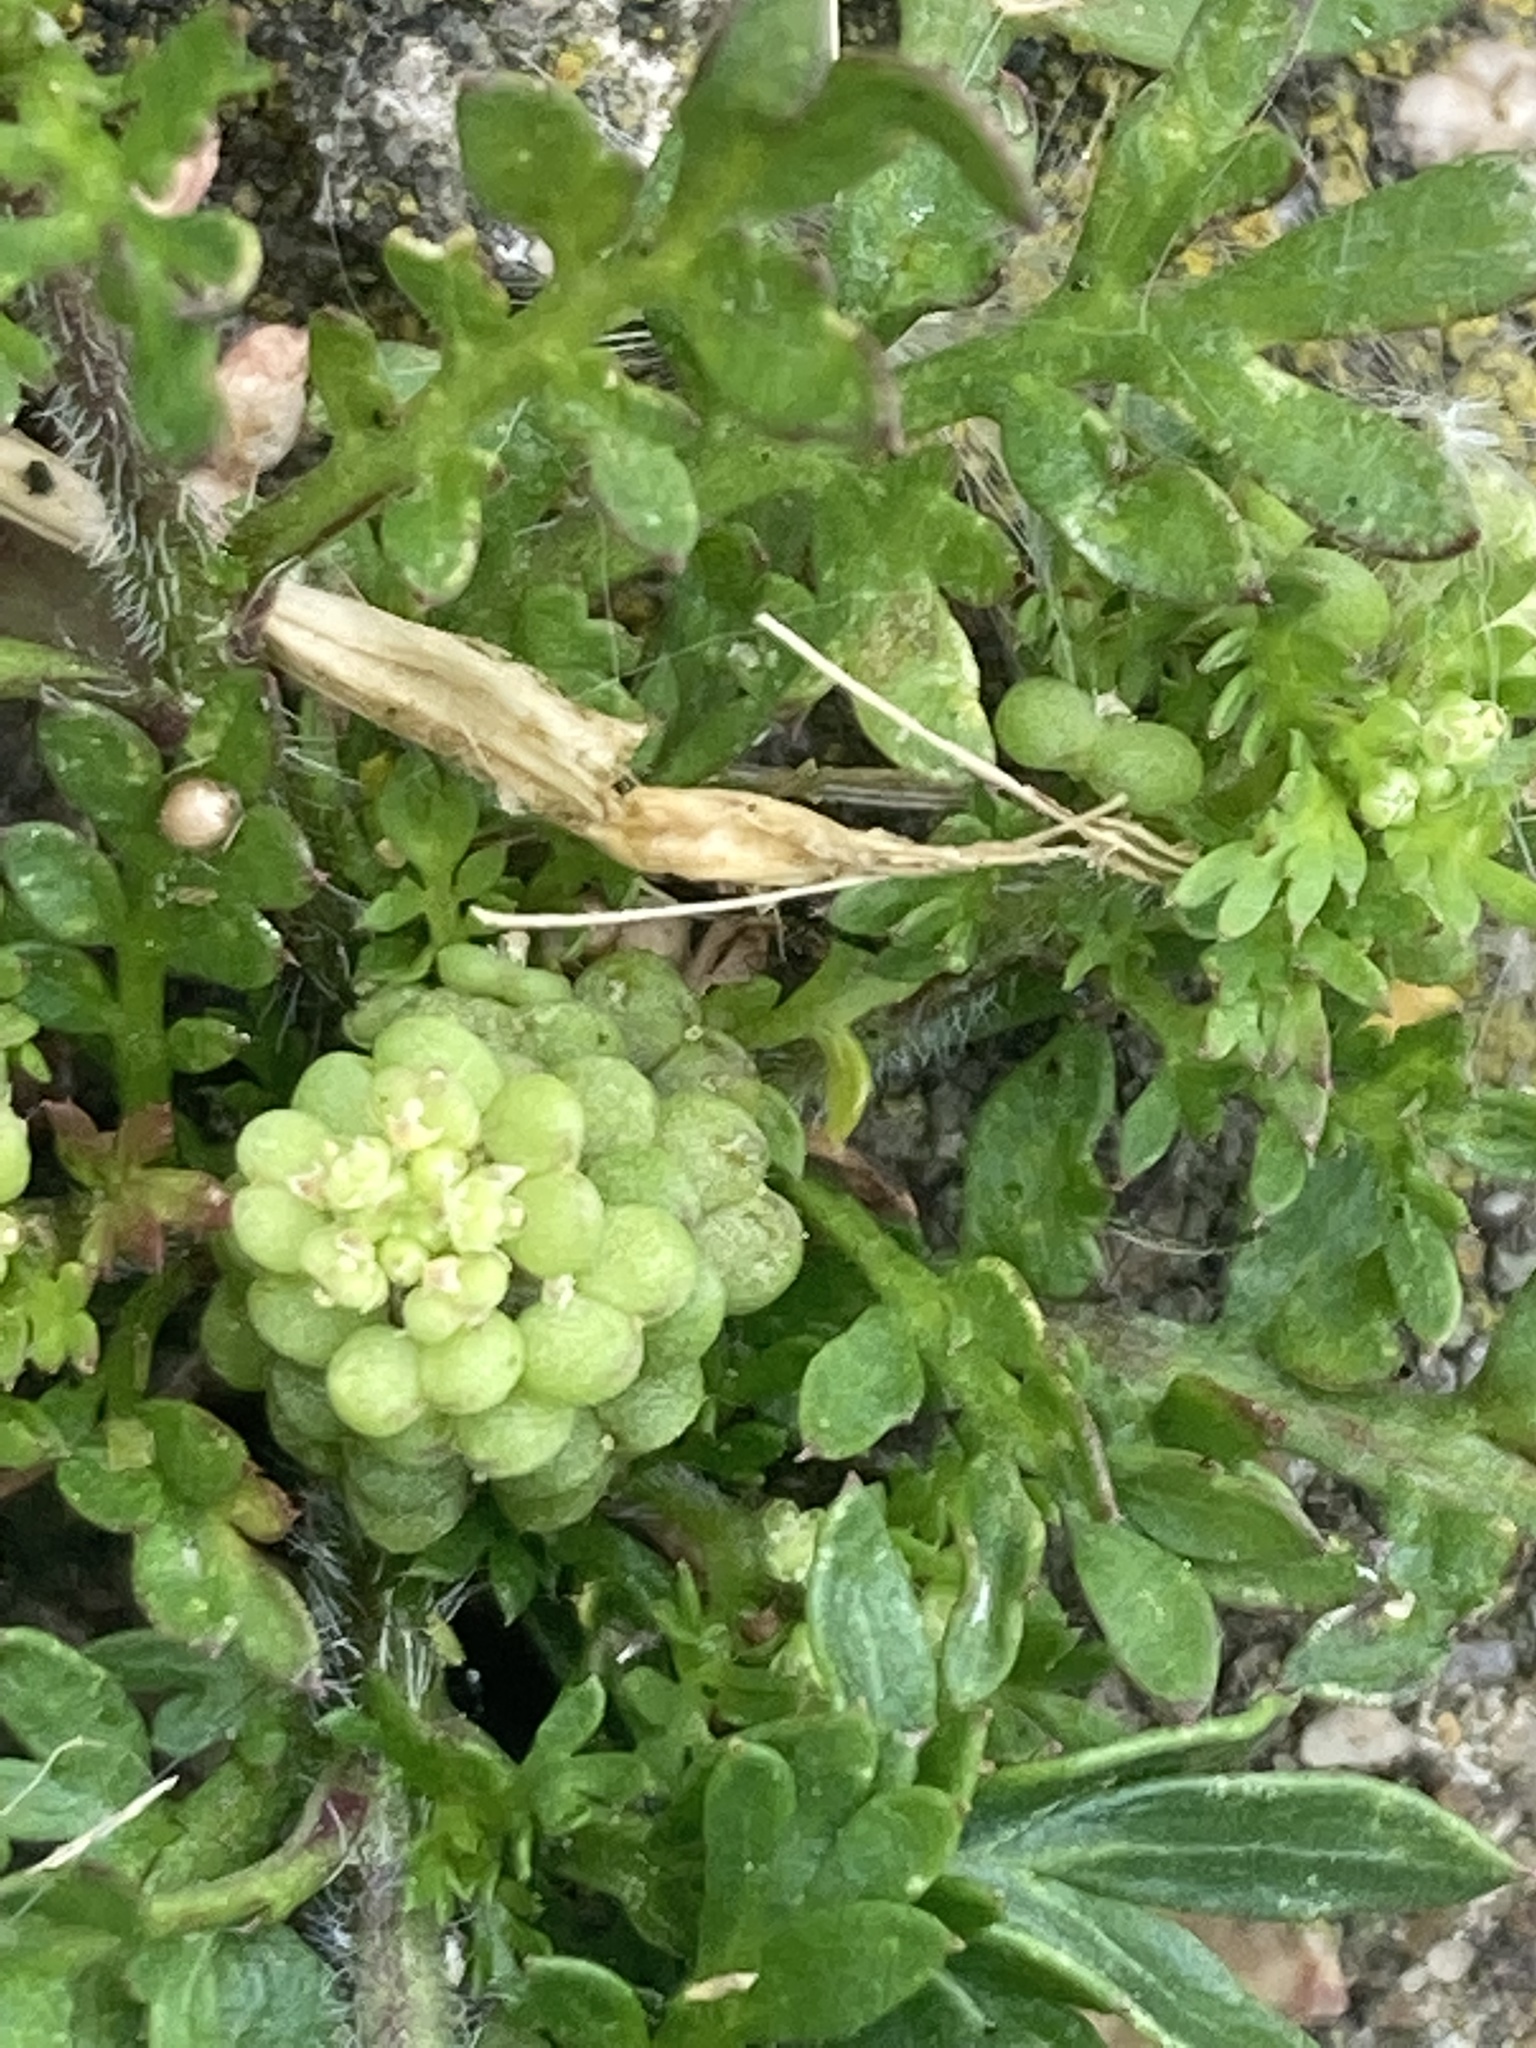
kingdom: Plantae
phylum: Tracheophyta
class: Magnoliopsida
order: Brassicales
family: Brassicaceae
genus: Lepidium
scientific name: Lepidium didymum
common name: Lesser swinecress
